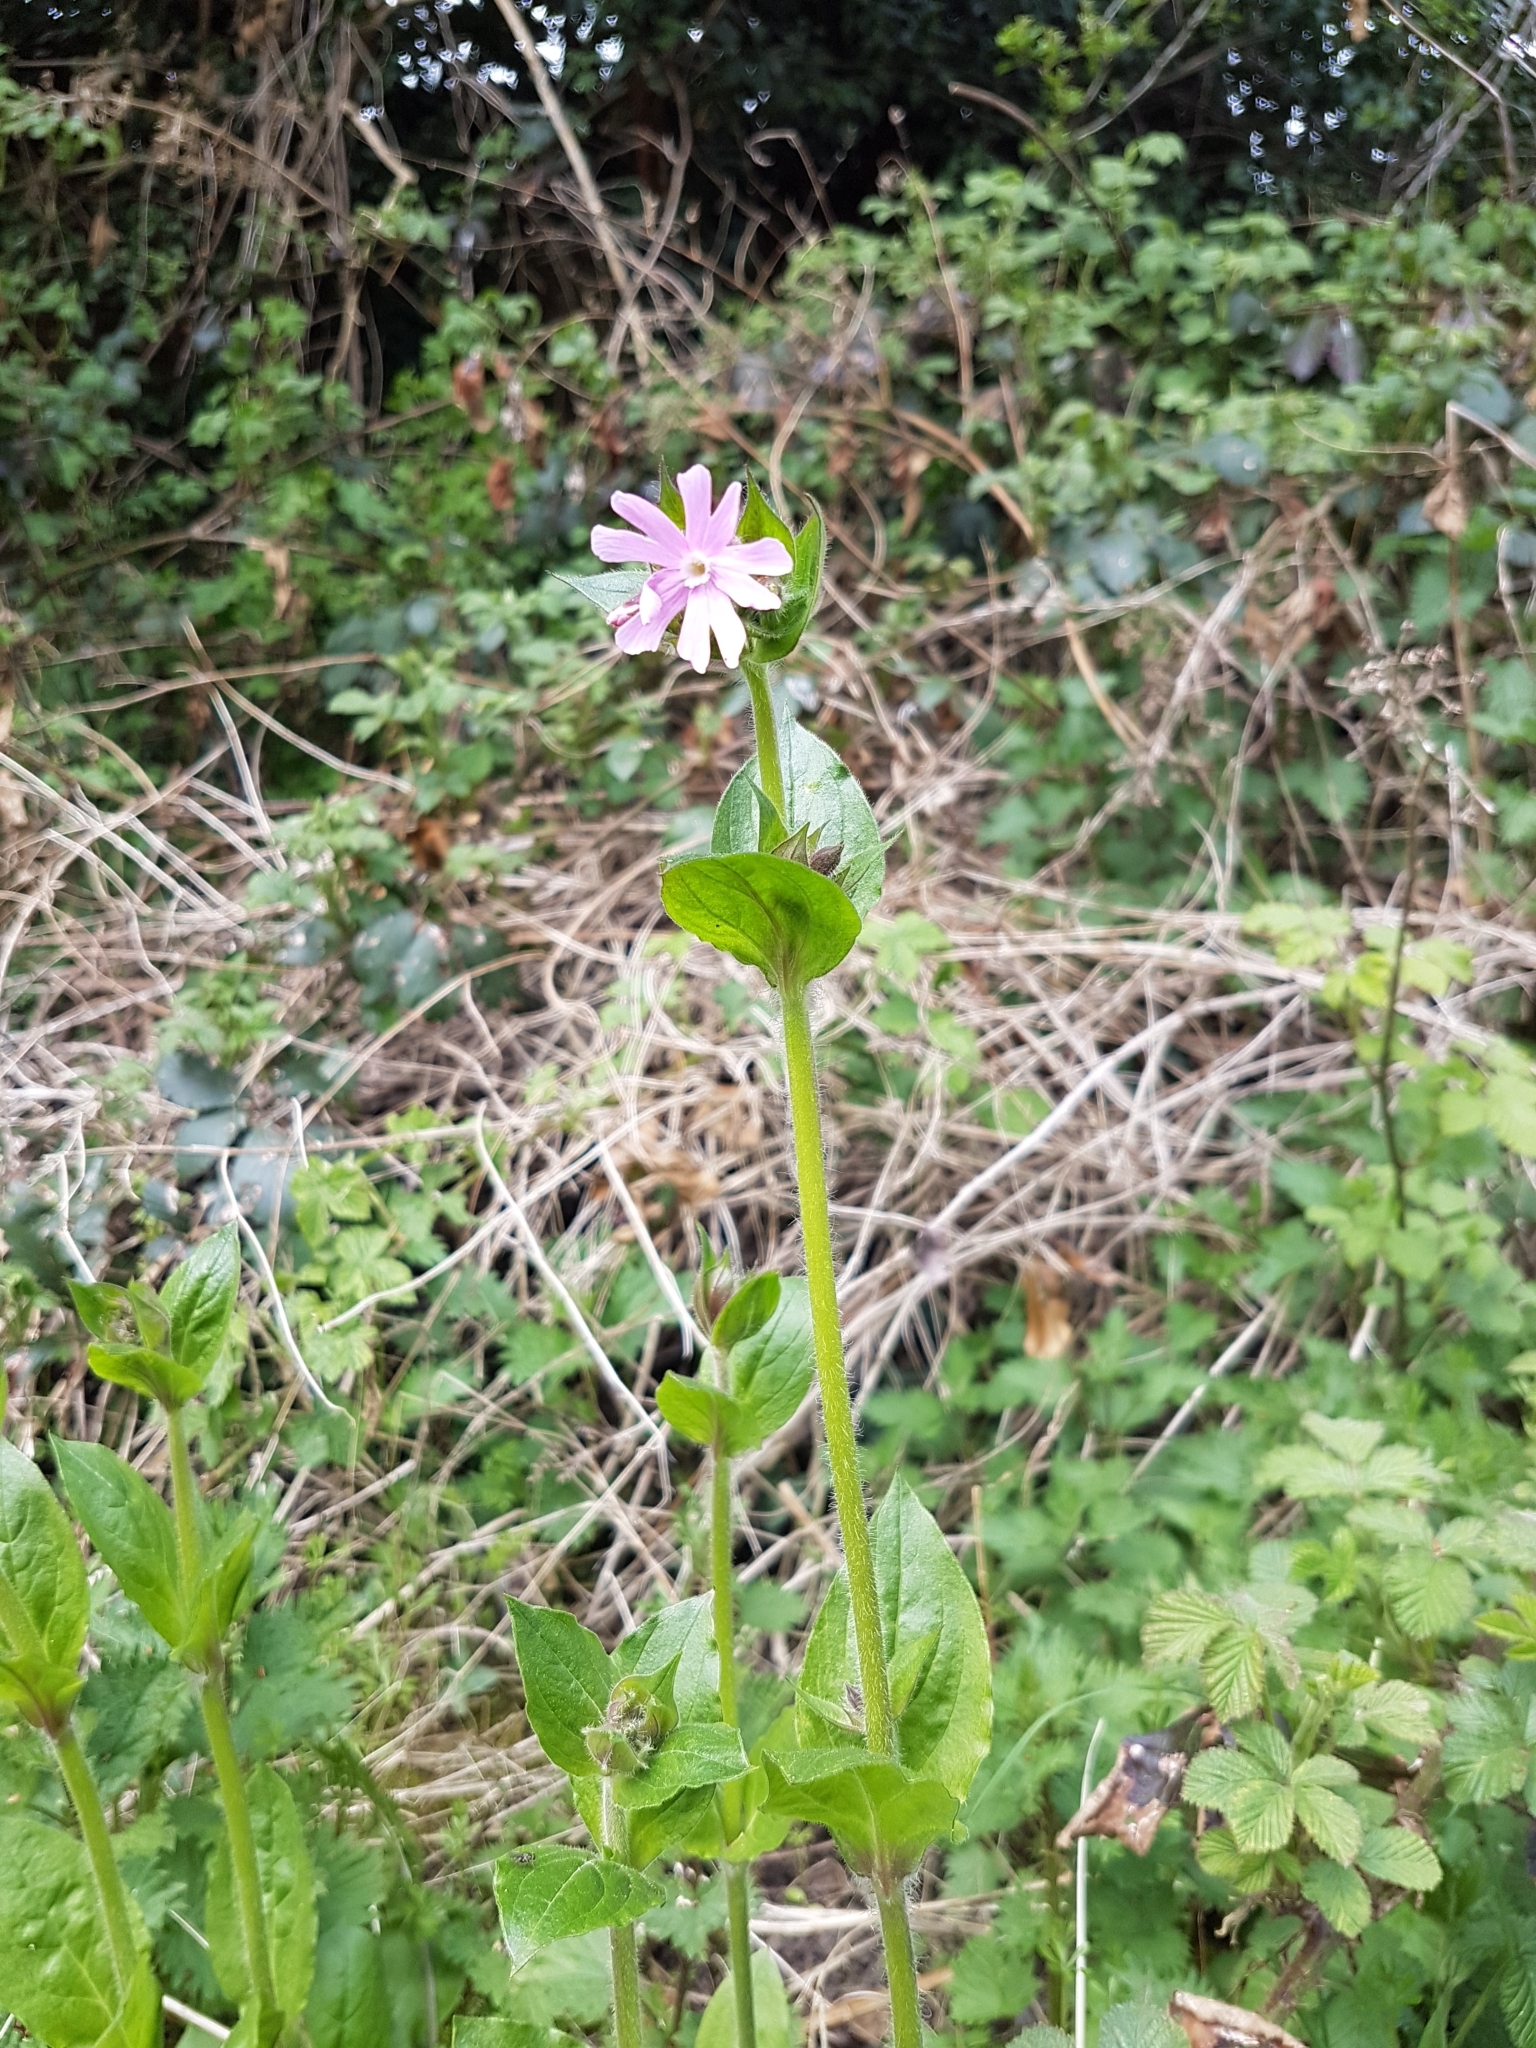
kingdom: Plantae
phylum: Tracheophyta
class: Magnoliopsida
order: Caryophyllales
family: Caryophyllaceae
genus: Silene
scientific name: Silene dioica
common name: Red campion
